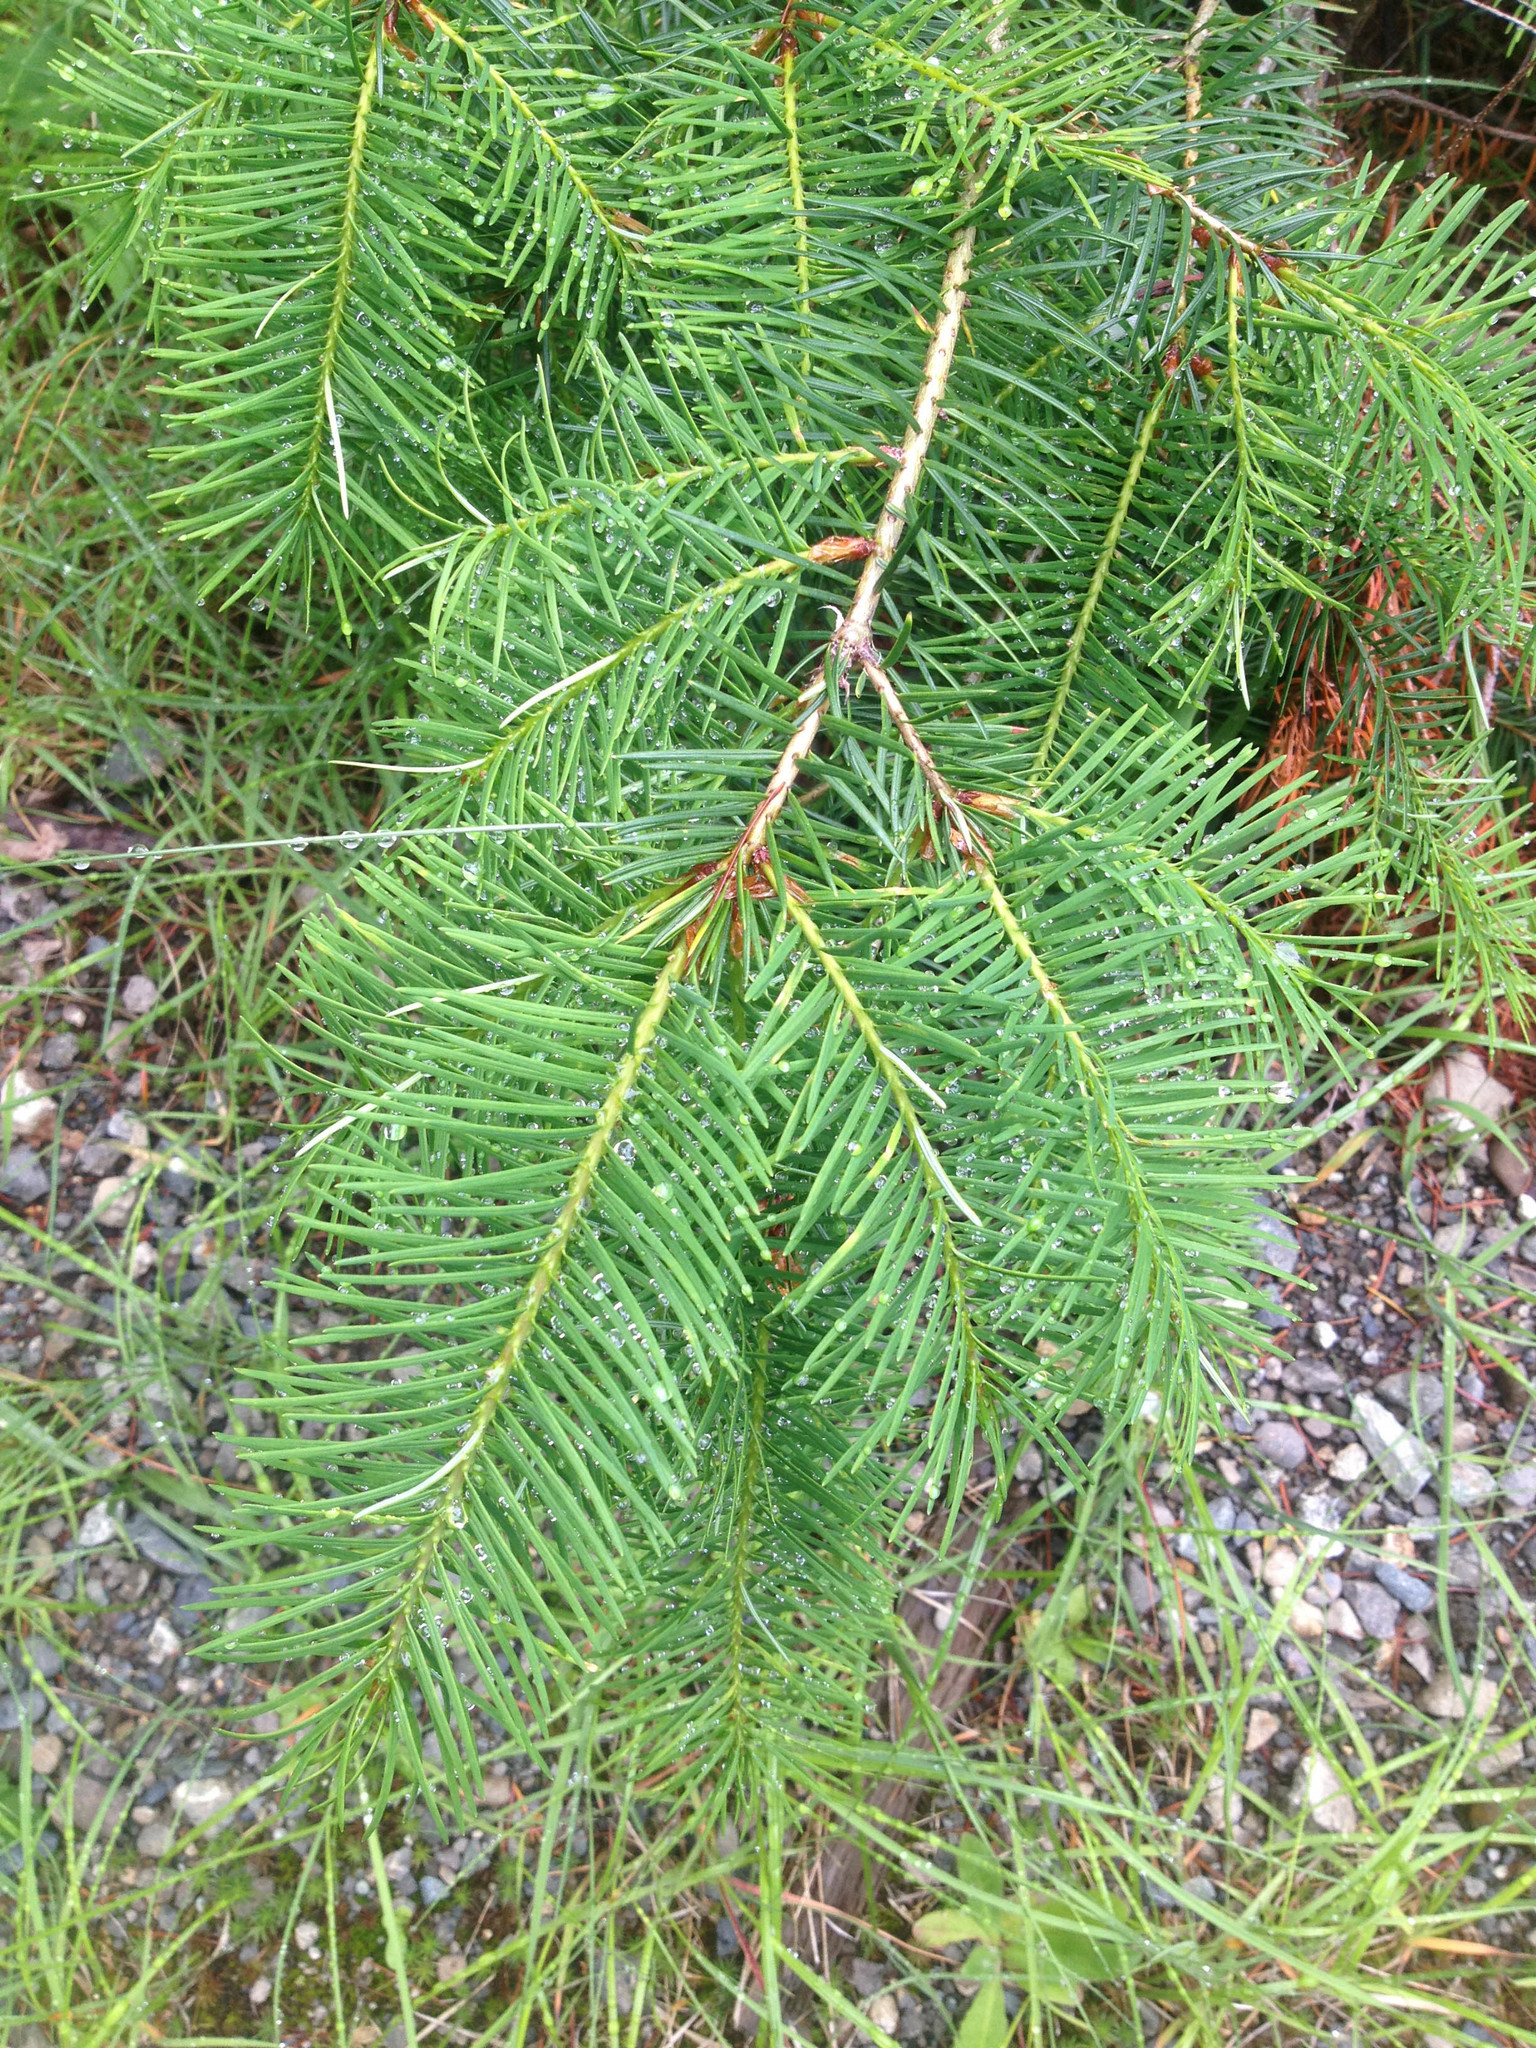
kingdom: Plantae
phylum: Tracheophyta
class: Pinopsida
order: Pinales
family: Pinaceae
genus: Pseudotsuga
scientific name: Pseudotsuga menziesii
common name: Douglas fir
